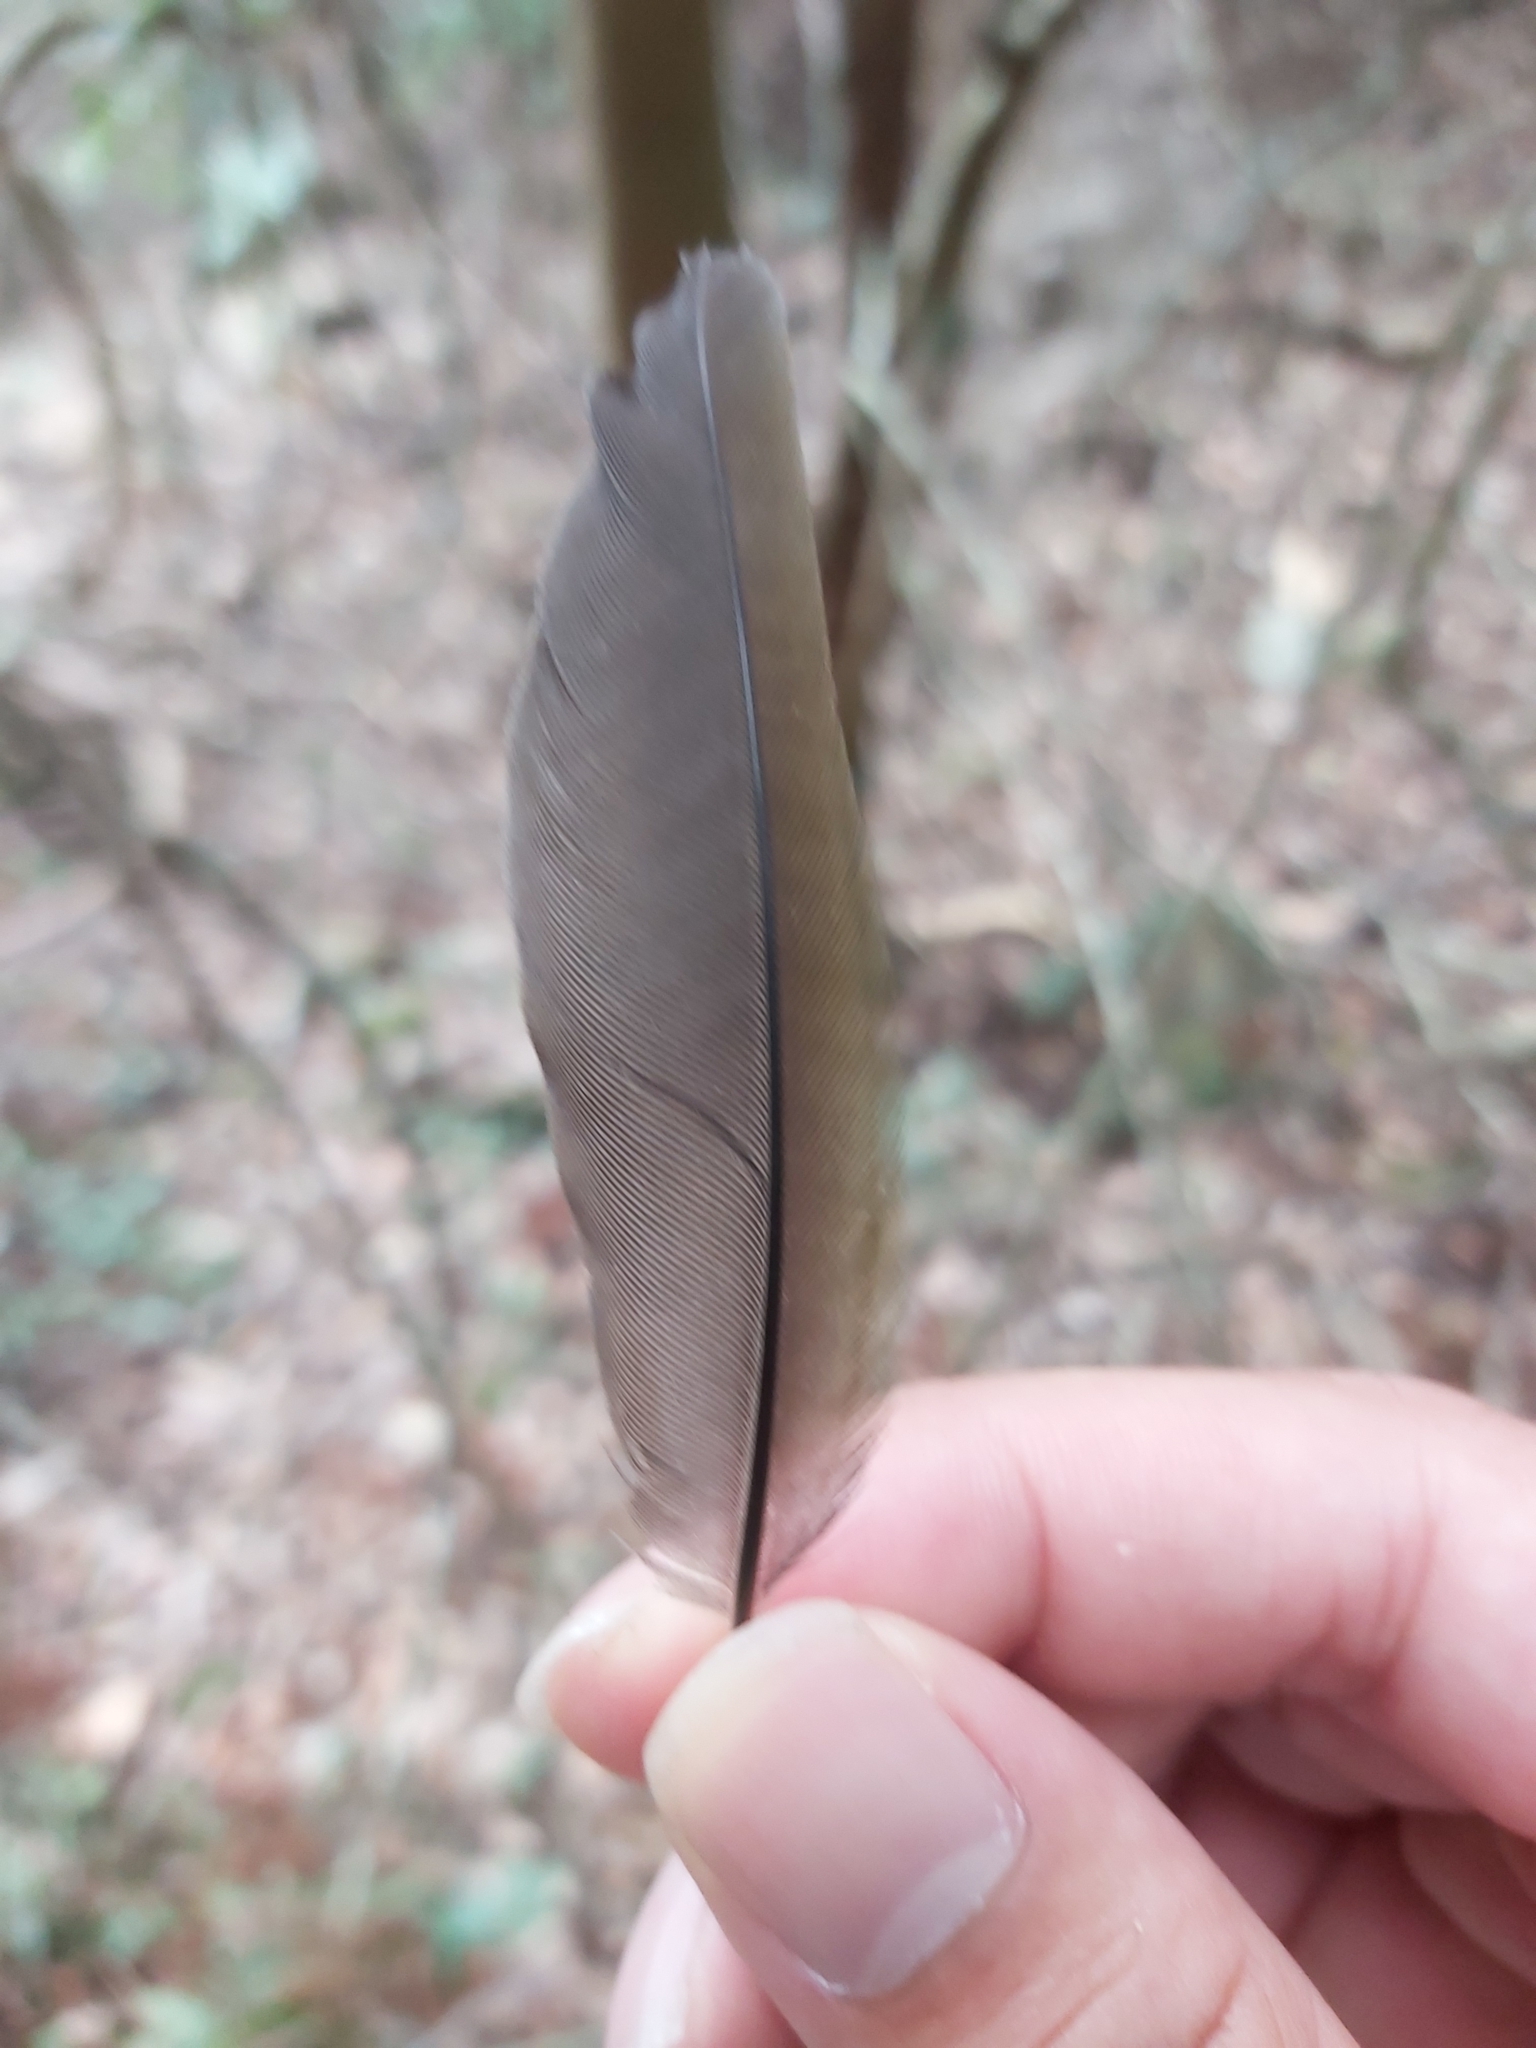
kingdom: Animalia
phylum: Chordata
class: Aves
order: Passeriformes
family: Menuridae
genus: Menura
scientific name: Menura novaehollandiae
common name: Superb lyrebird
